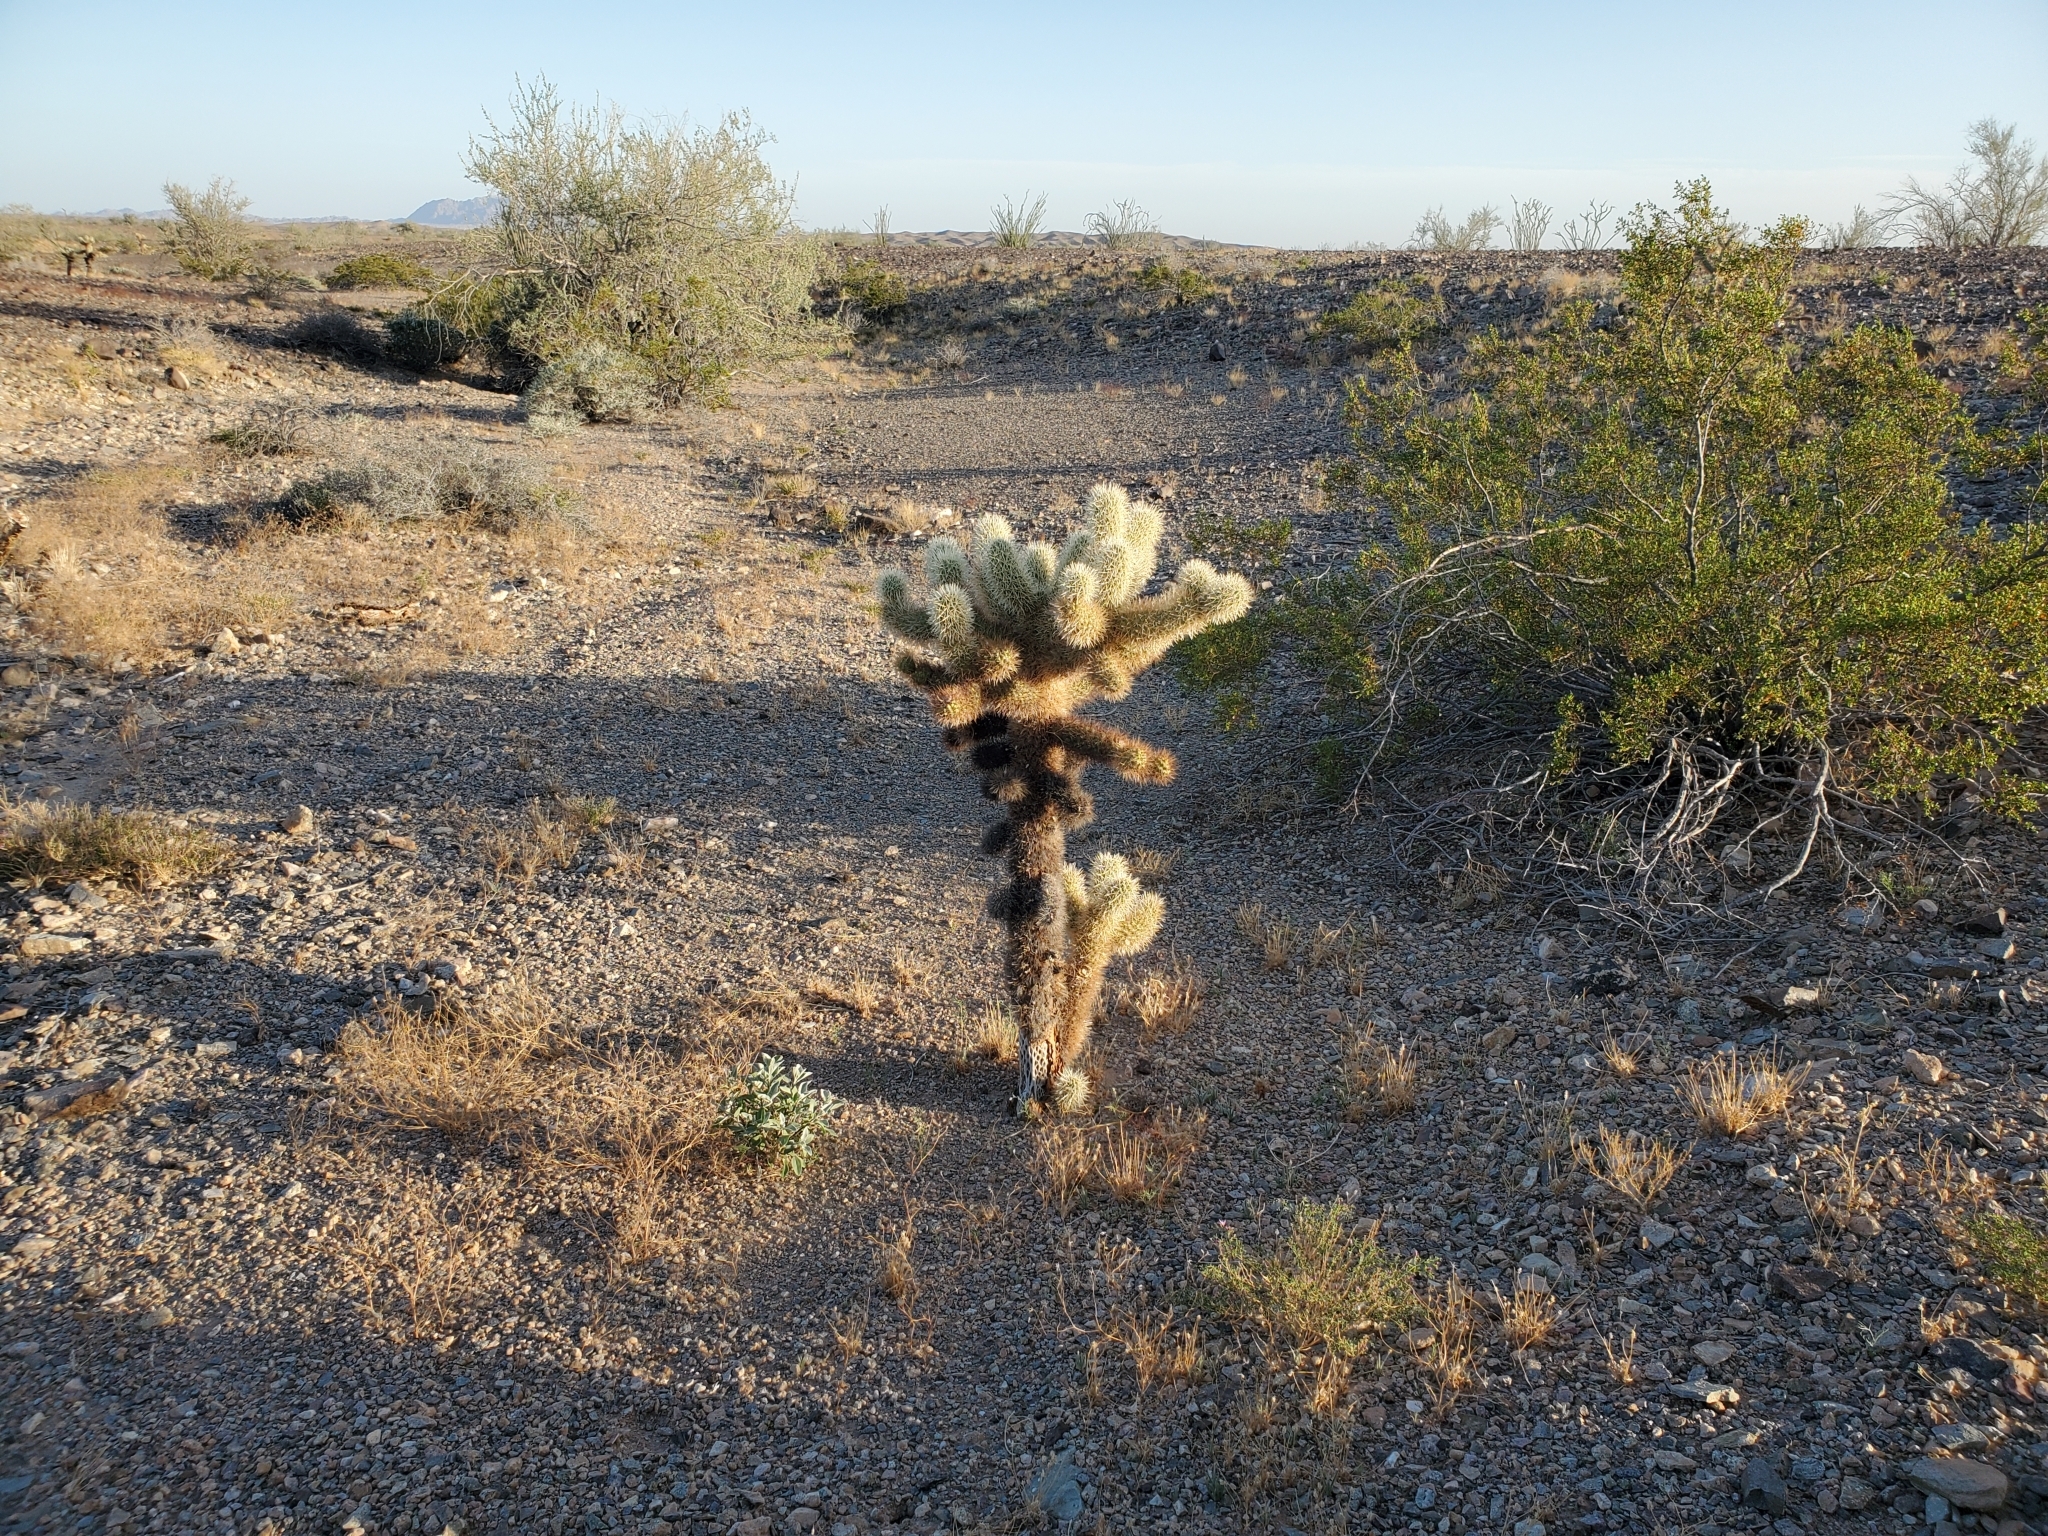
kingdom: Plantae
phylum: Tracheophyta
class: Magnoliopsida
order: Caryophyllales
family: Cactaceae
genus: Cylindropuntia
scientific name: Cylindropuntia fosbergii
